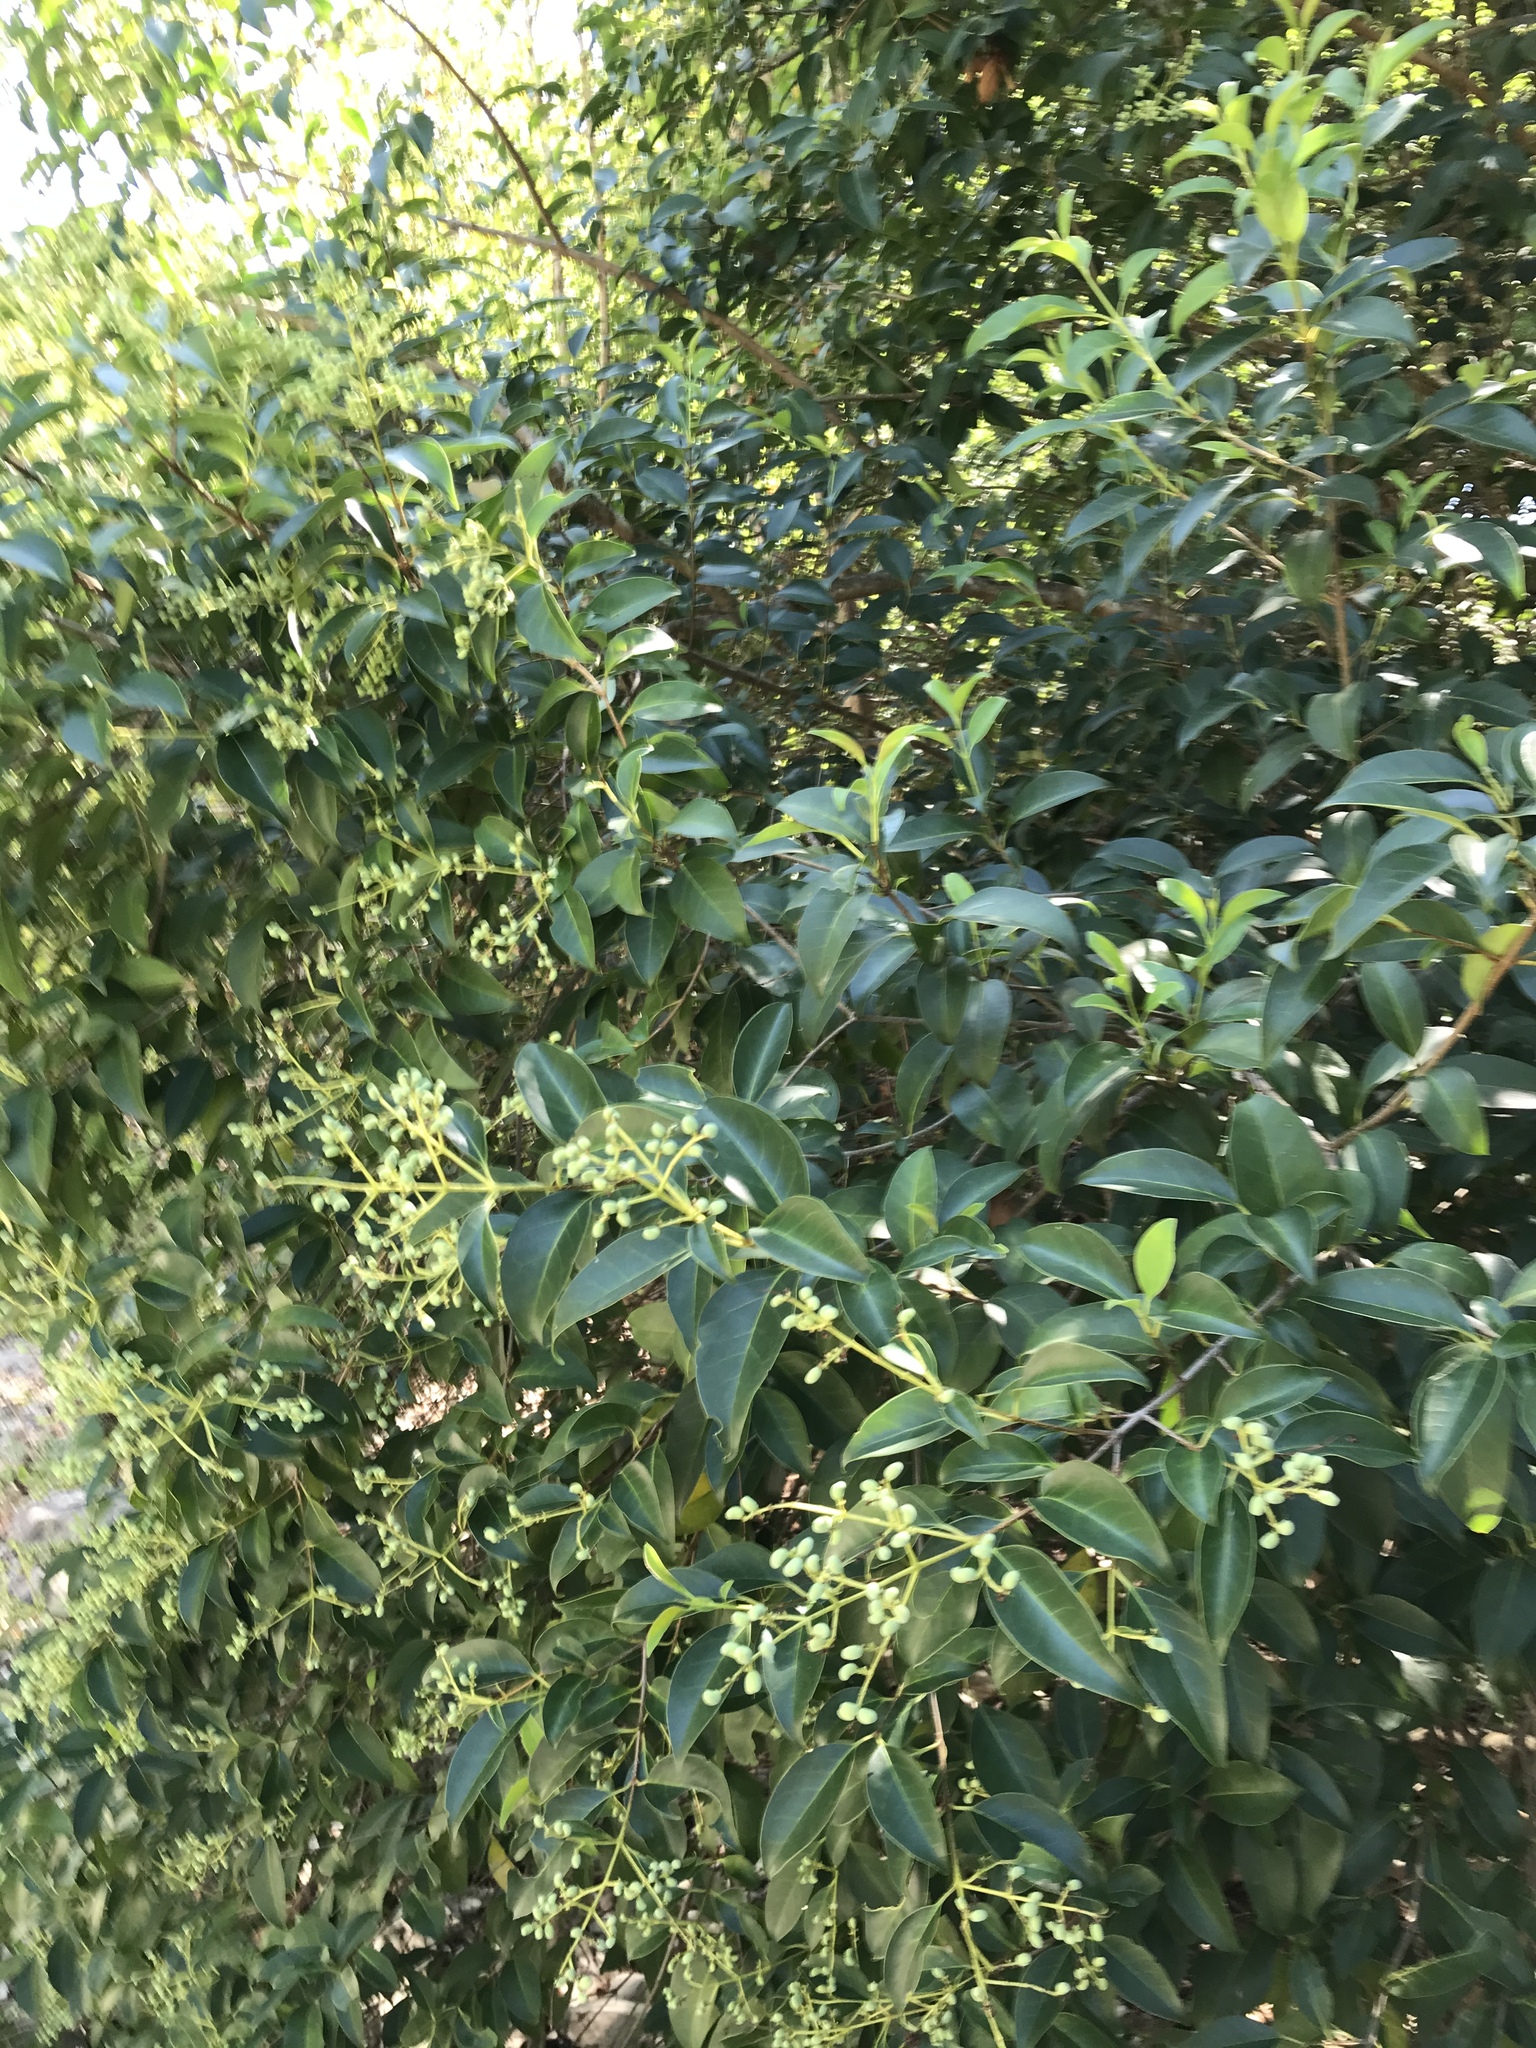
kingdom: Plantae
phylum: Tracheophyta
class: Magnoliopsida
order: Lamiales
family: Oleaceae
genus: Ligustrum
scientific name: Ligustrum lucidum
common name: Glossy privet
